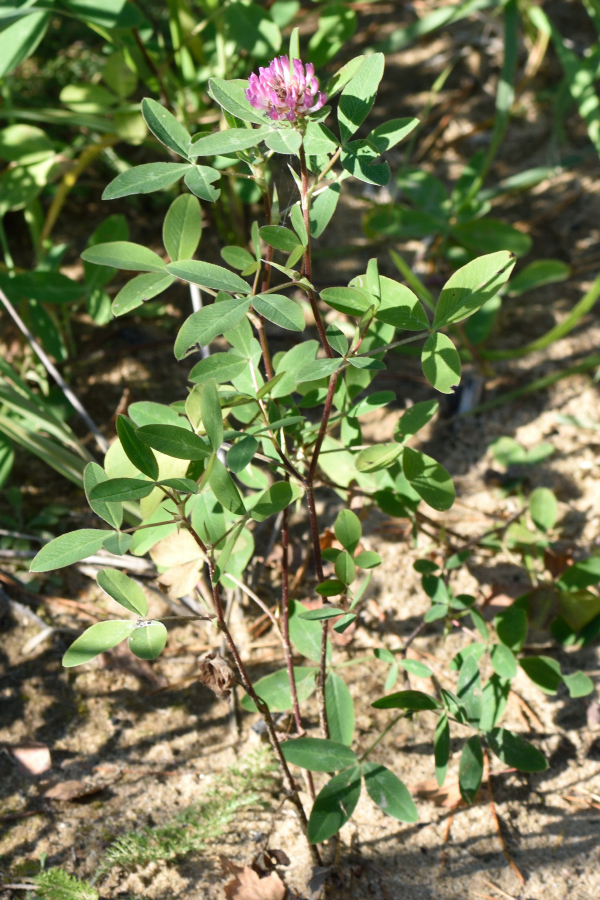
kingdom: Plantae
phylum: Tracheophyta
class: Magnoliopsida
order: Fabales
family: Fabaceae
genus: Trifolium
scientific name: Trifolium medium
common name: Zigzag clover
